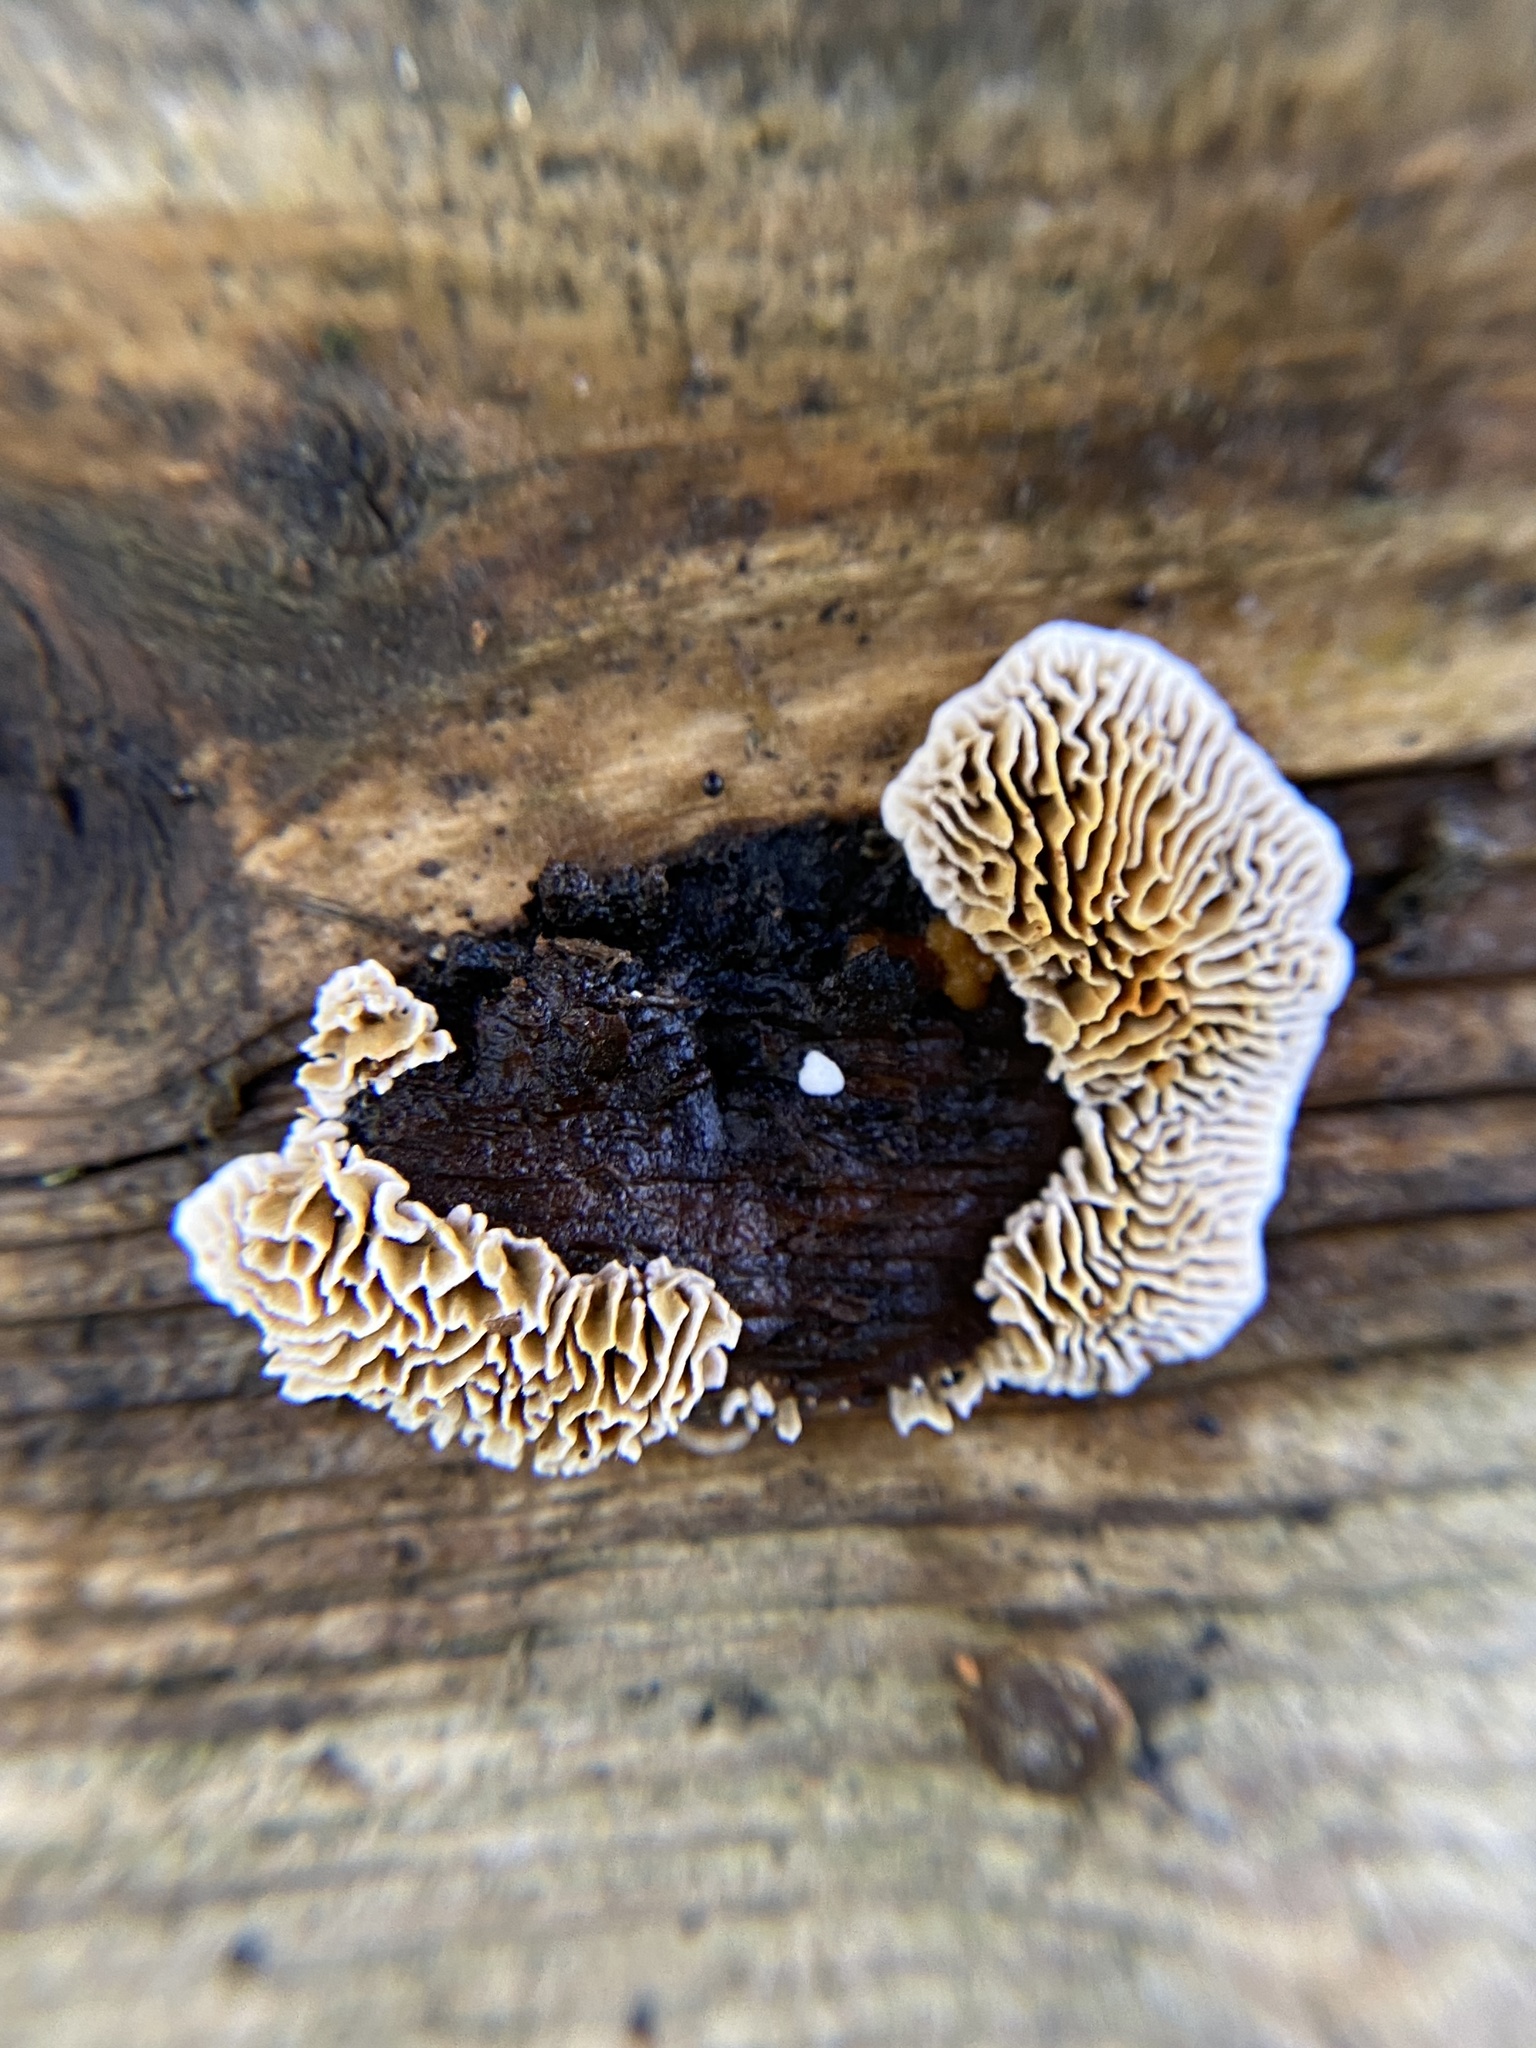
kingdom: Fungi
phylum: Basidiomycota
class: Agaricomycetes
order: Gloeophyllales
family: Gloeophyllaceae
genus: Gloeophyllum
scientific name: Gloeophyllum sepiarium
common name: Conifer mazegill
